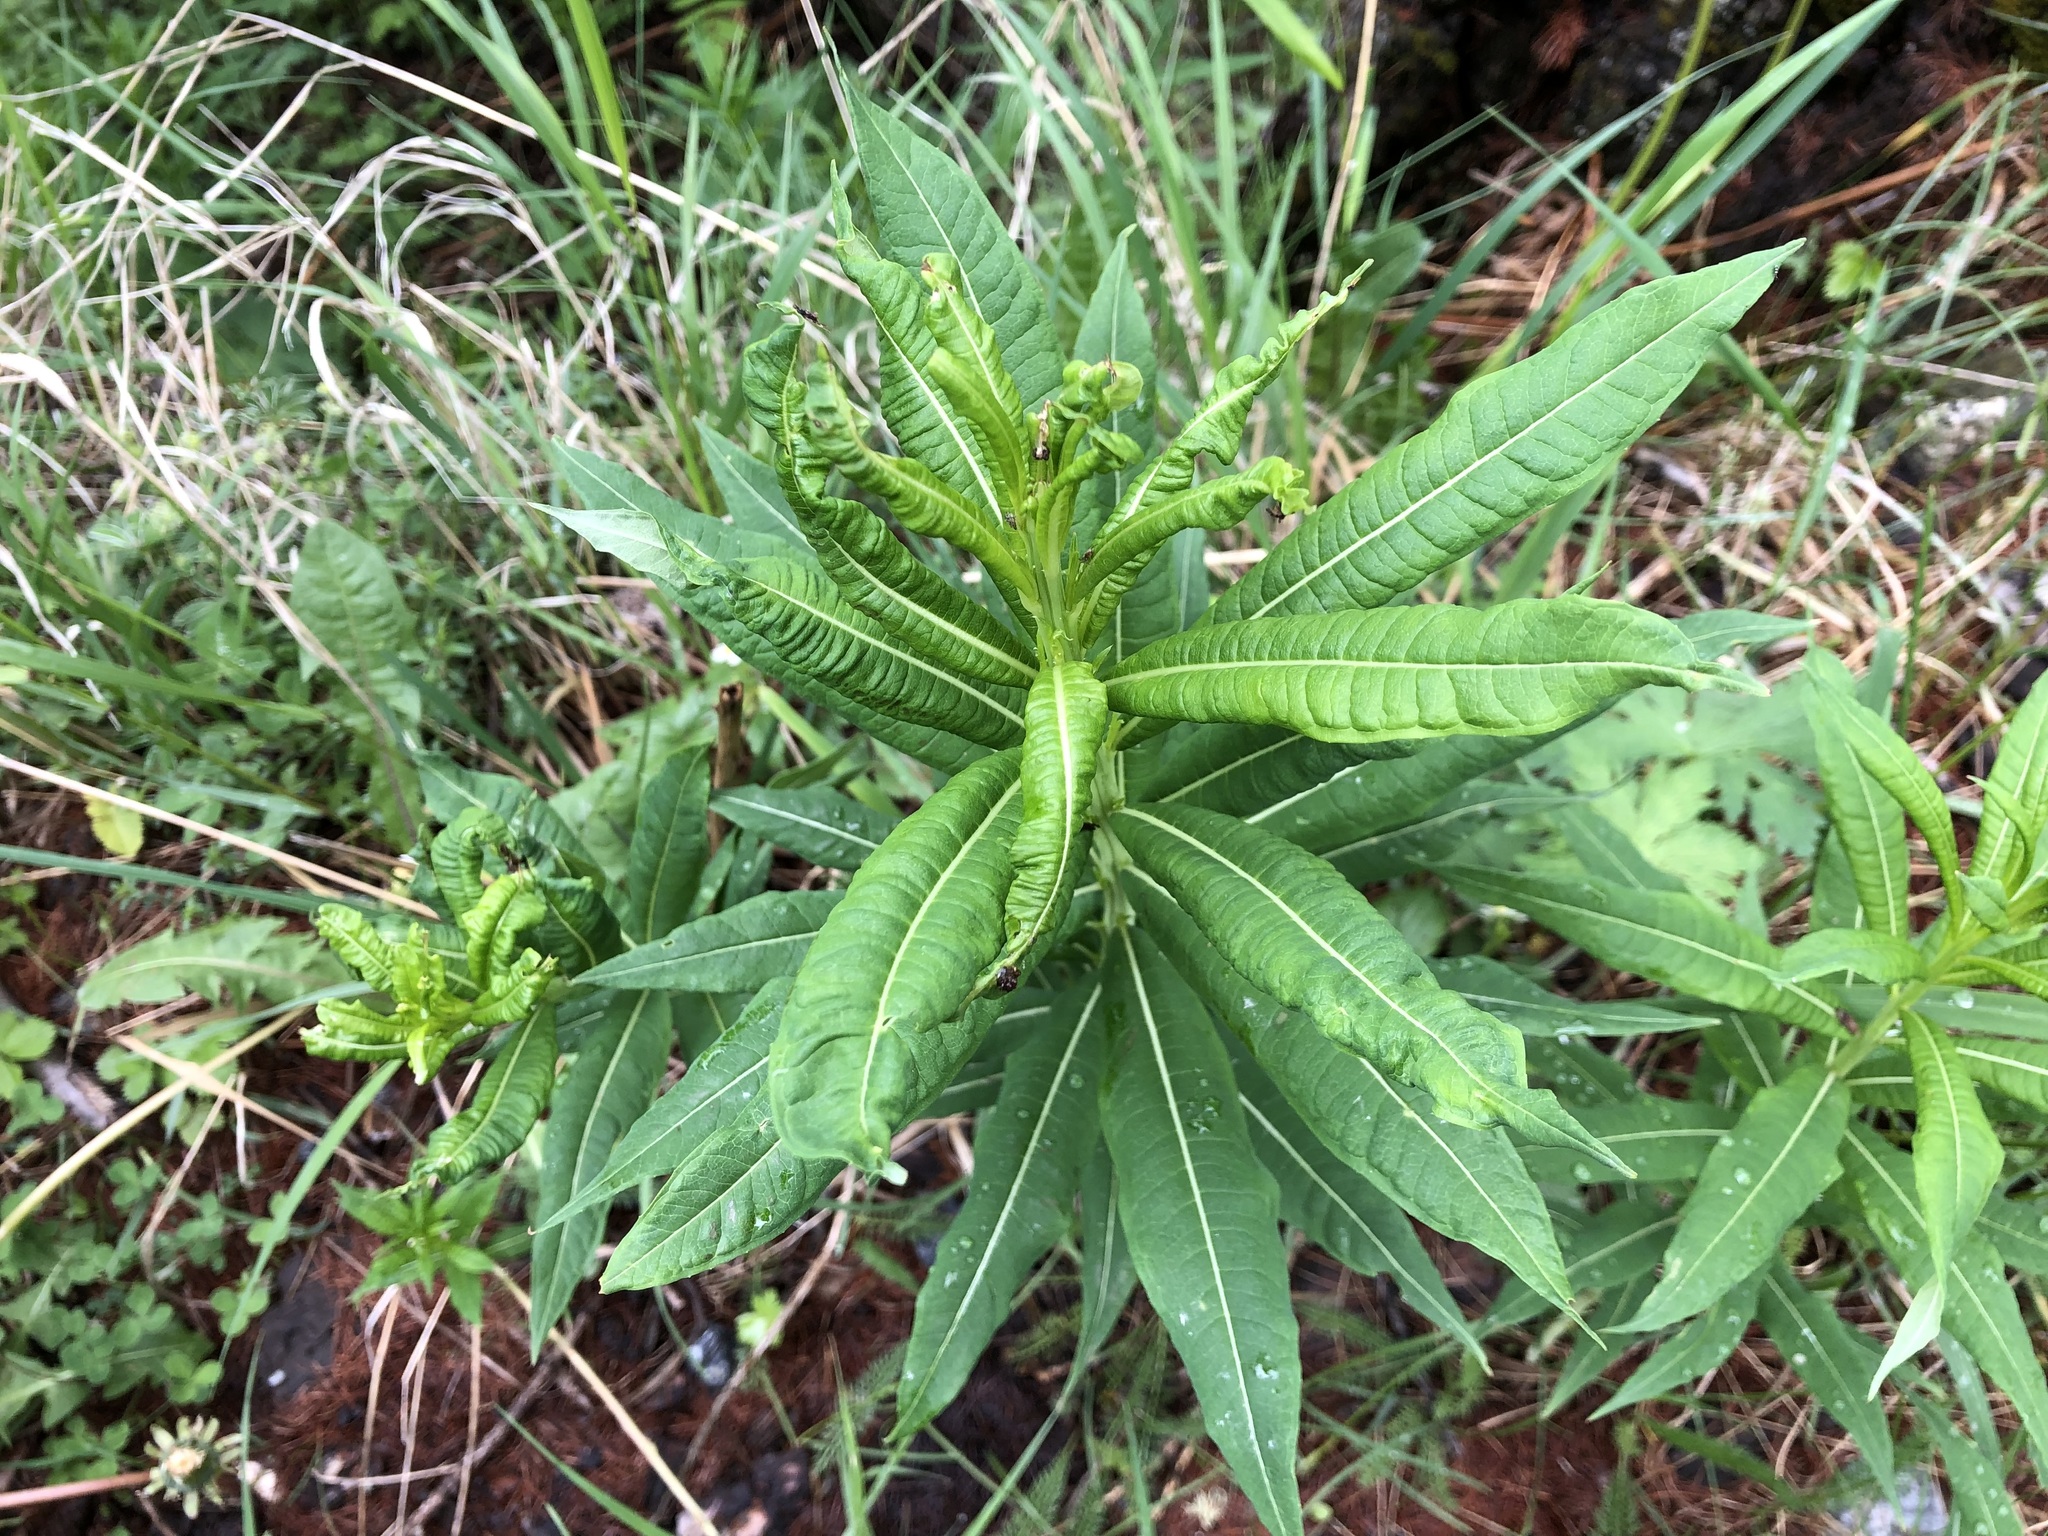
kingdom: Plantae
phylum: Tracheophyta
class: Magnoliopsida
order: Myrtales
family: Onagraceae
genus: Chamaenerion
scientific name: Chamaenerion angustifolium
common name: Fireweed
